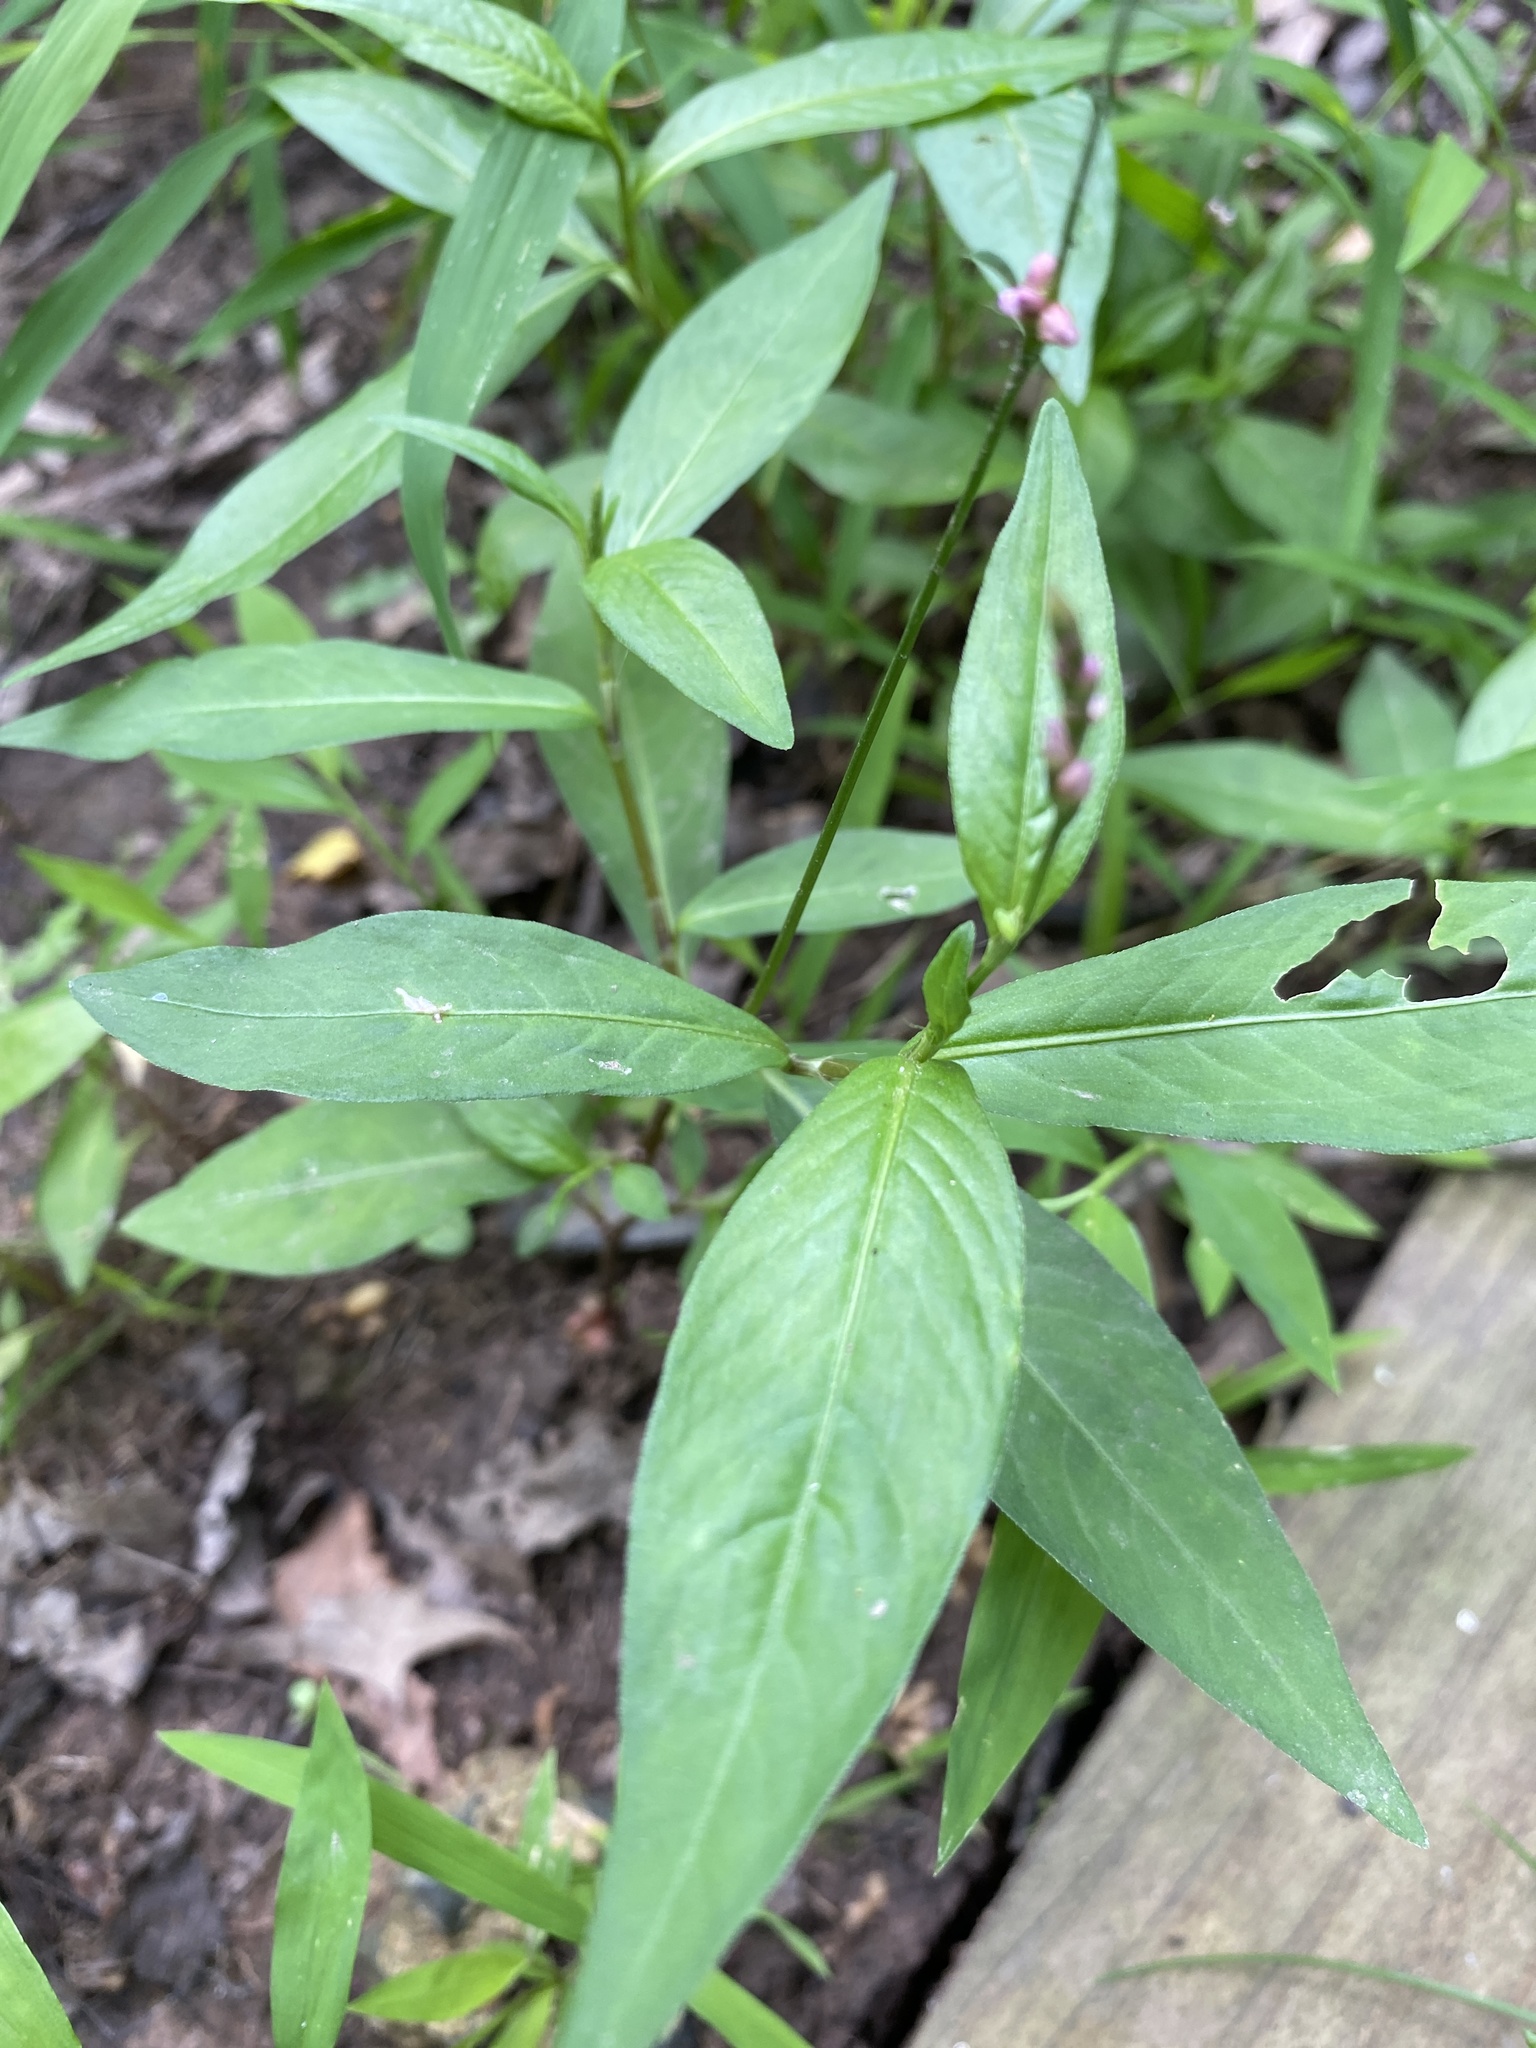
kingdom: Plantae
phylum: Tracheophyta
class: Magnoliopsida
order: Caryophyllales
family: Polygonaceae
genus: Persicaria
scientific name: Persicaria longiseta
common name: Bristly lady's-thumb
